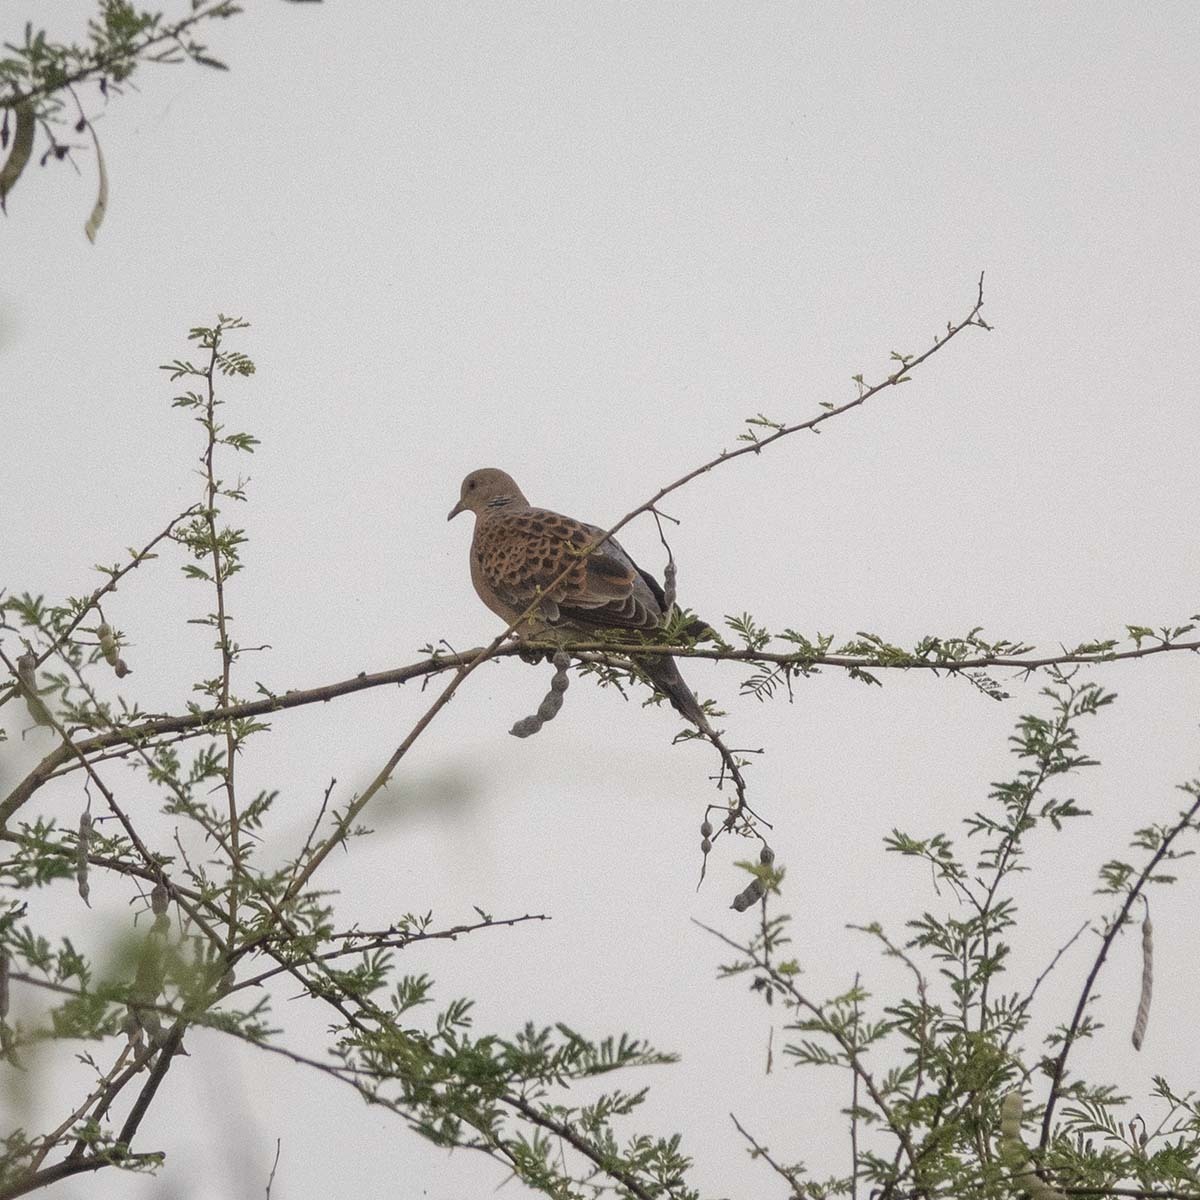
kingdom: Animalia
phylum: Chordata
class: Aves
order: Columbiformes
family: Columbidae
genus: Streptopelia
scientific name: Streptopelia orientalis
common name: Oriental turtle dove
